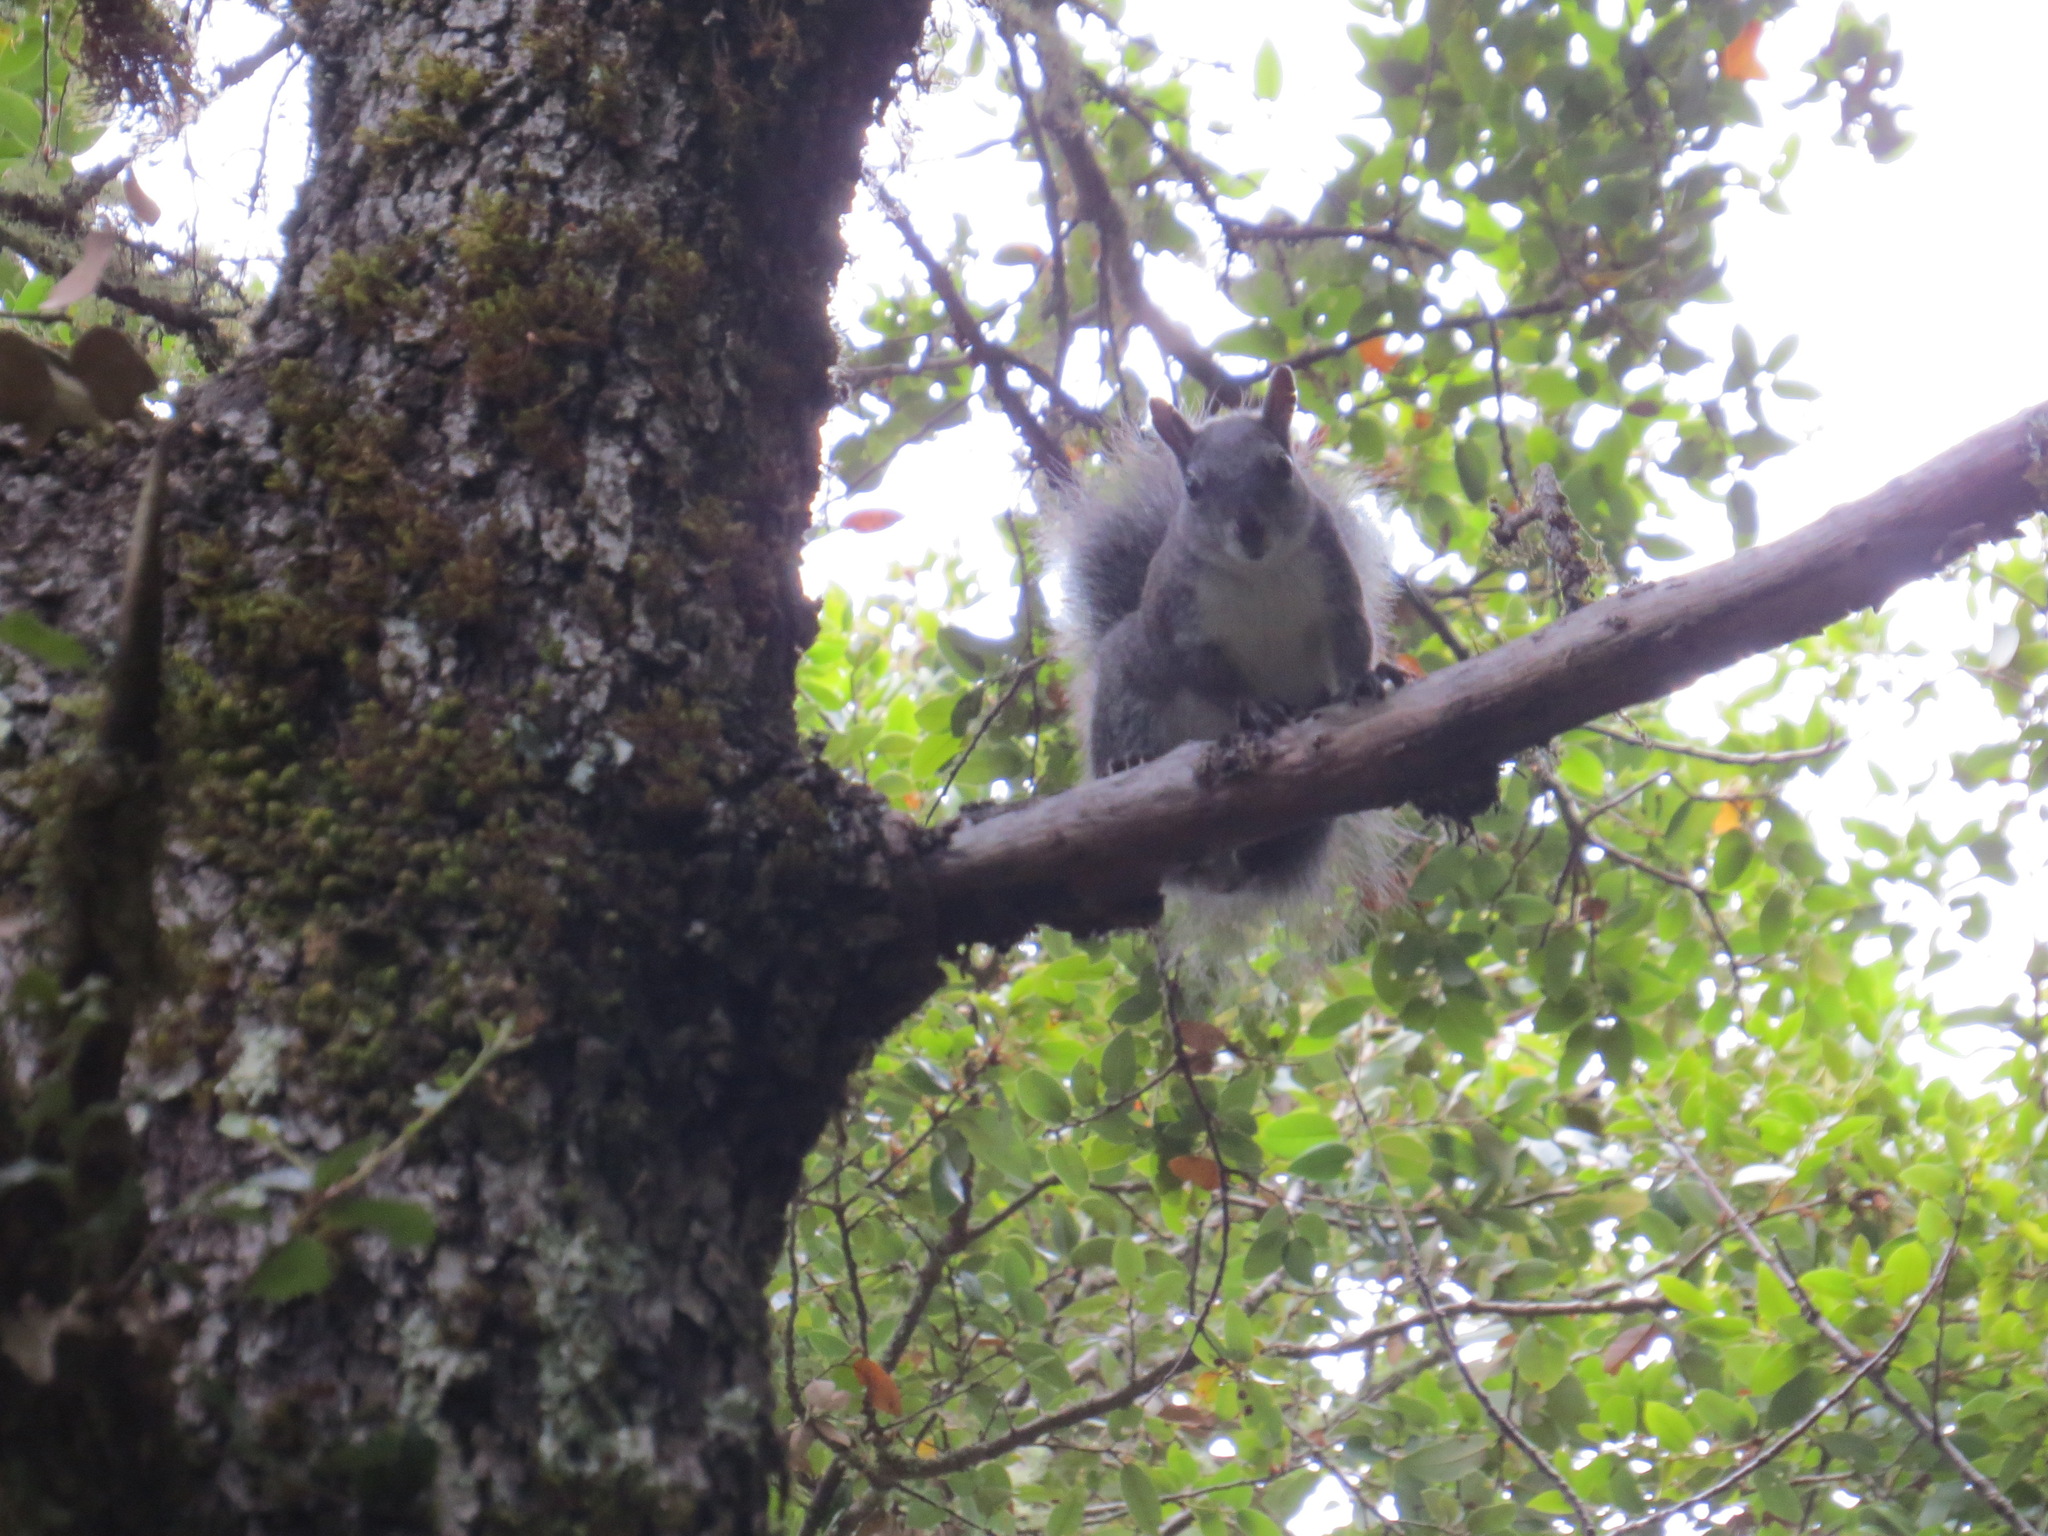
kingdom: Animalia
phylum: Chordata
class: Mammalia
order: Rodentia
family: Sciuridae
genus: Sciurus
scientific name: Sciurus griseus
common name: Western gray squirrel
